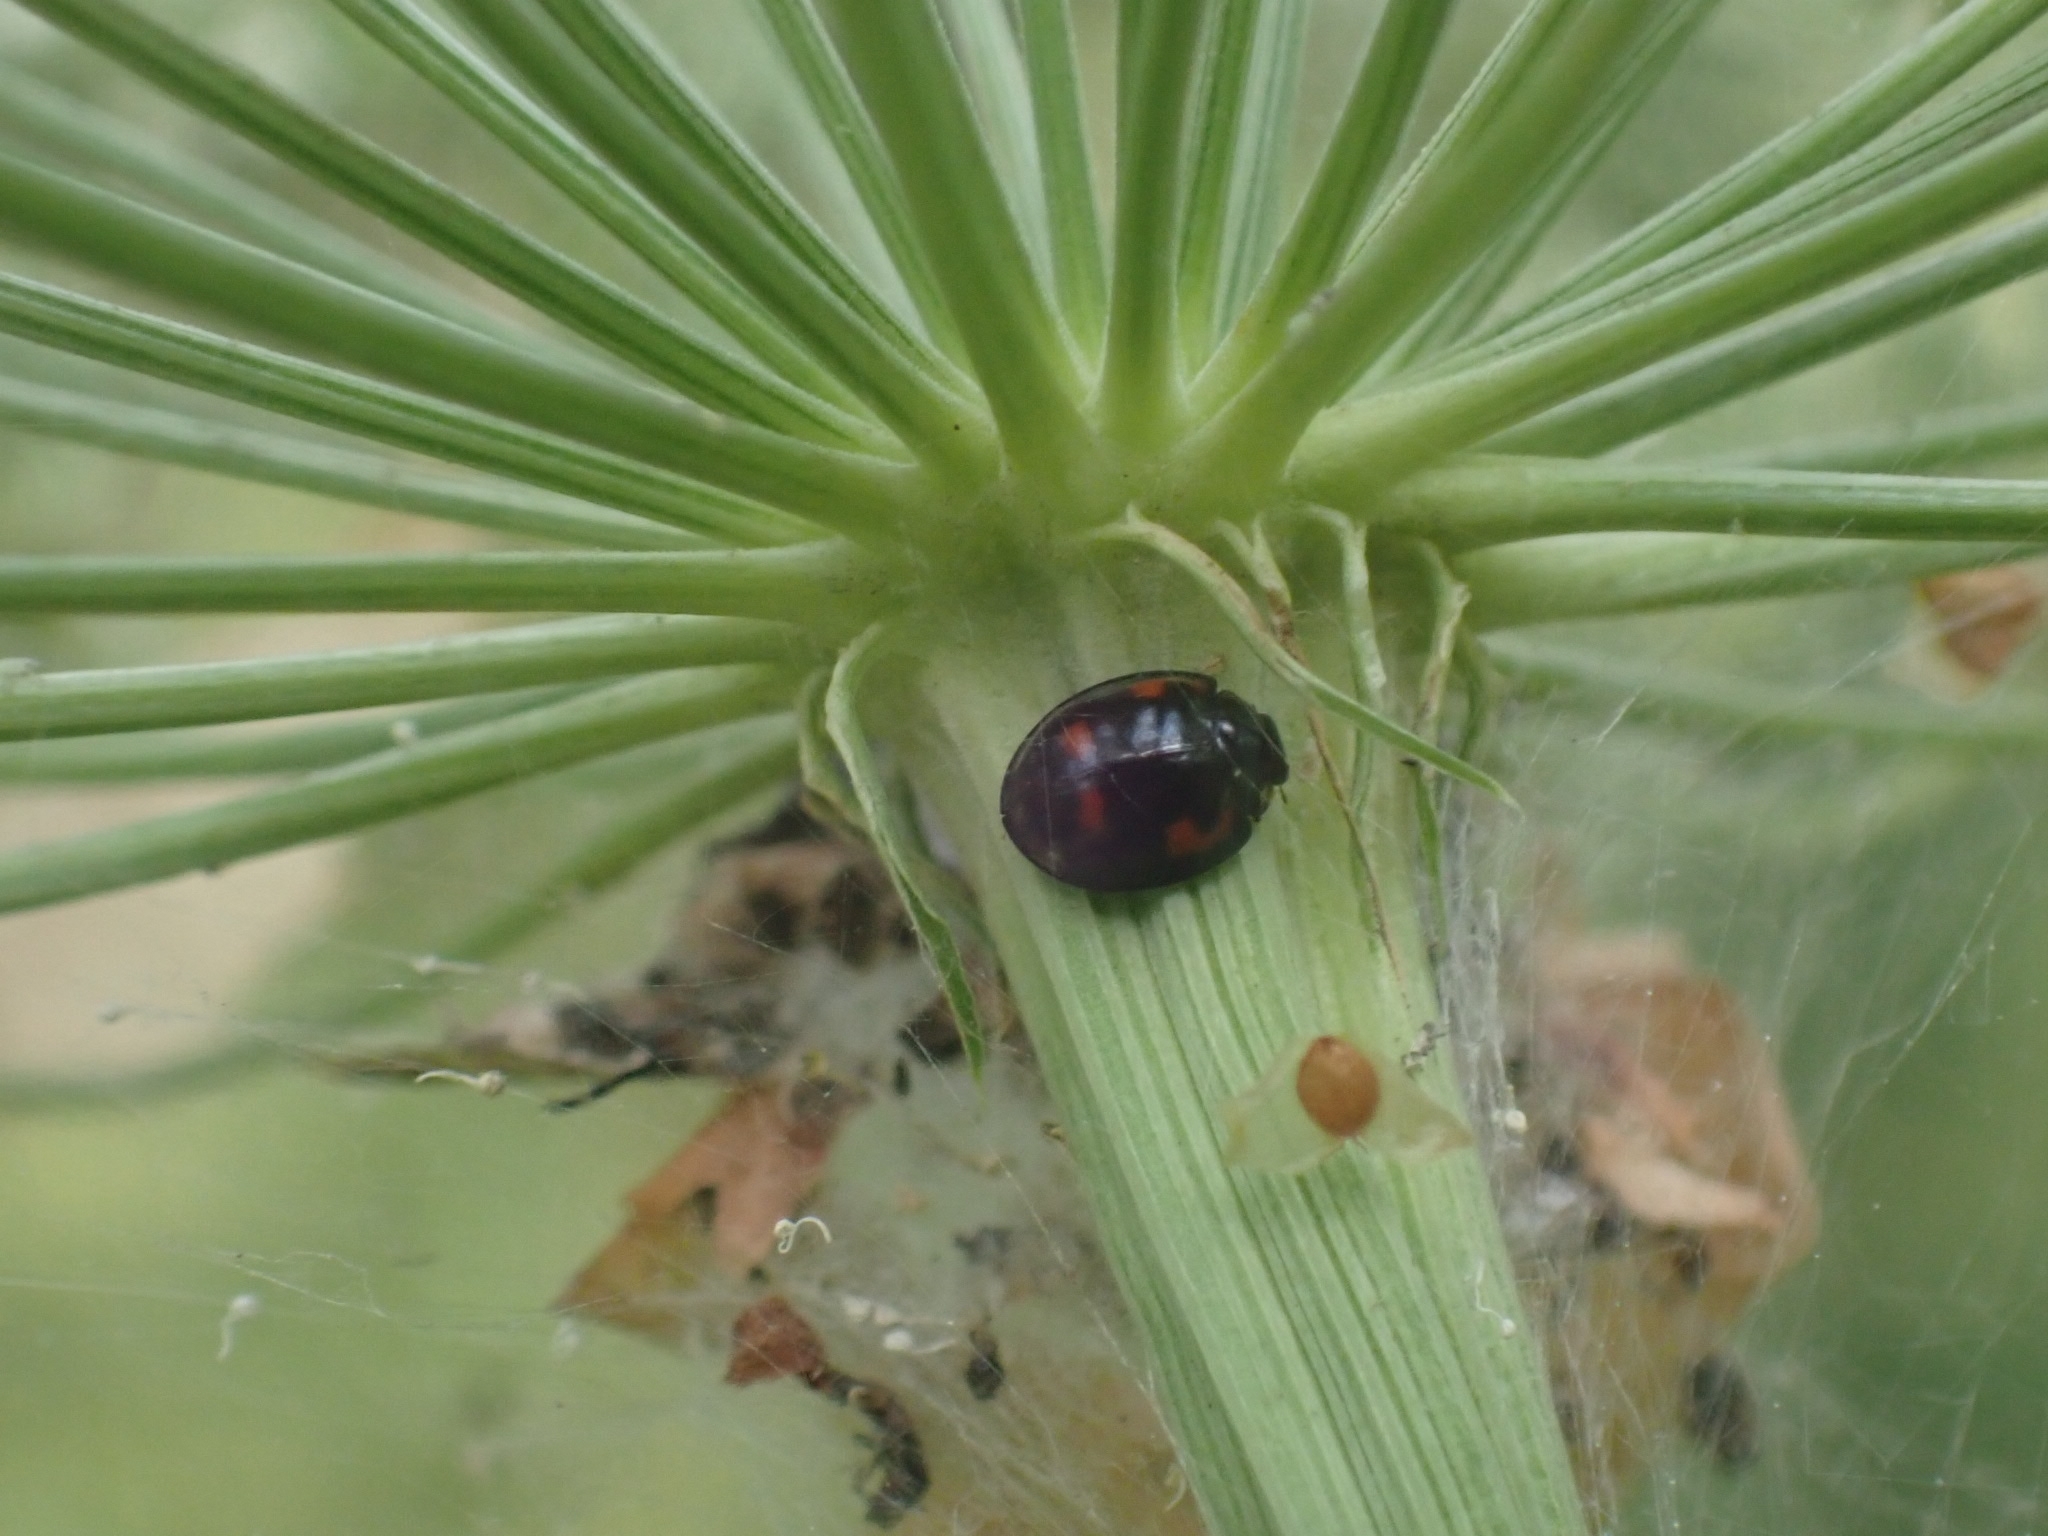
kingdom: Animalia
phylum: Arthropoda
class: Insecta
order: Coleoptera
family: Coccinellidae
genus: Brumus
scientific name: Brumus quadripustulatus
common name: Ladybird beetle
